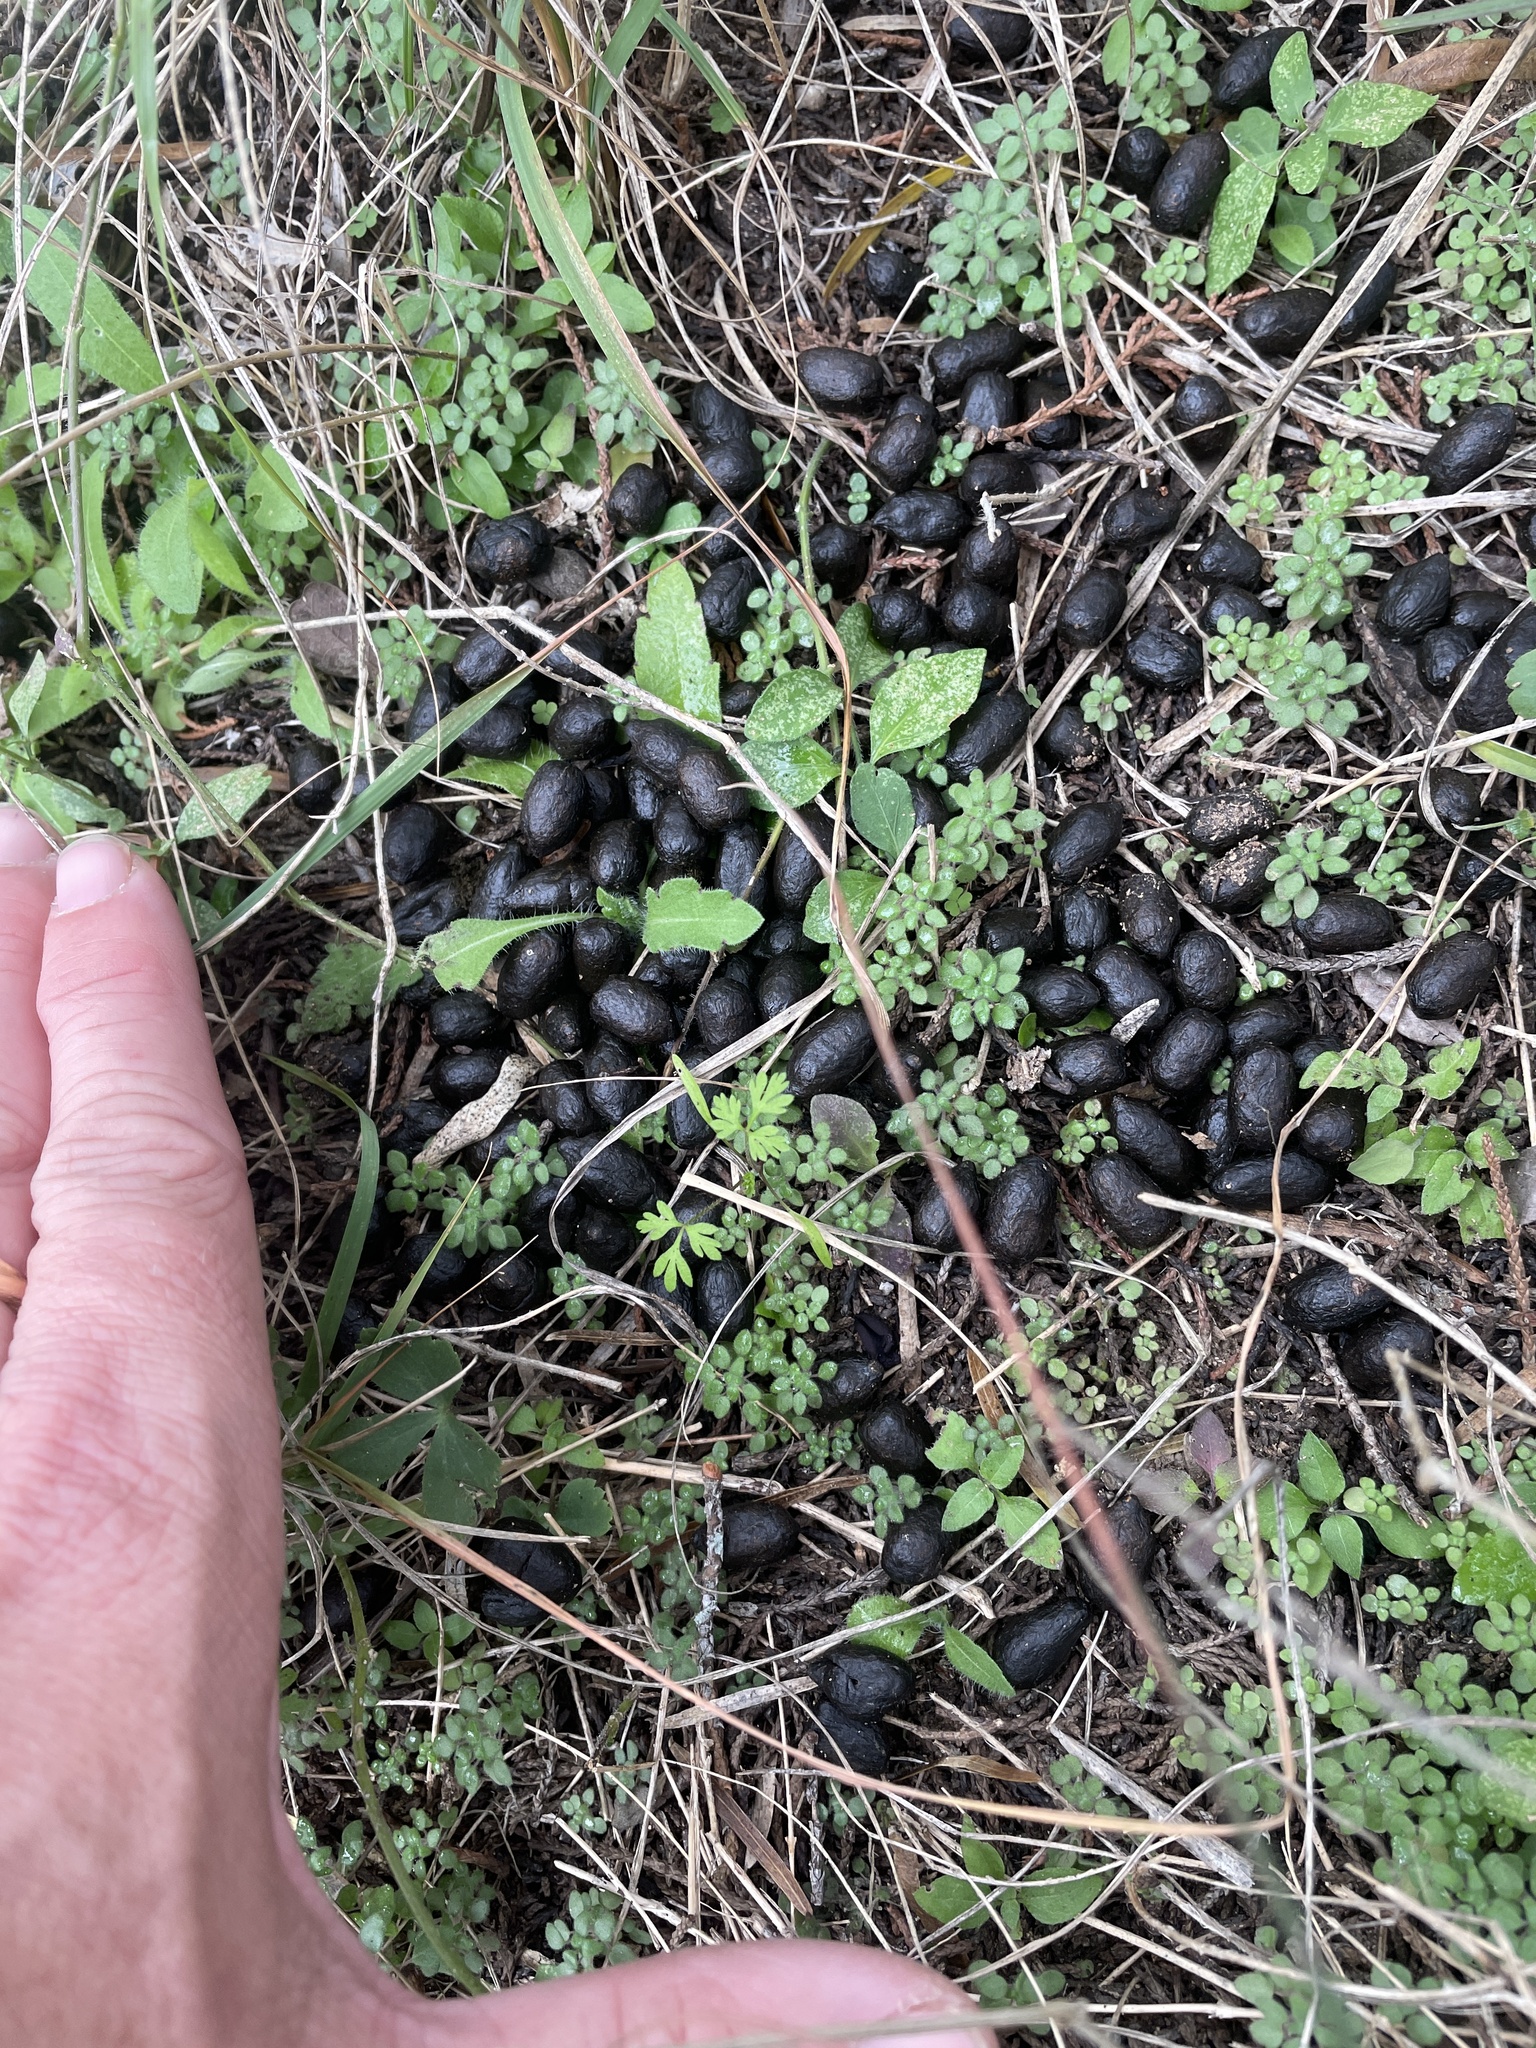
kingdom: Animalia
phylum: Chordata
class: Mammalia
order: Artiodactyla
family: Cervidae
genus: Odocoileus
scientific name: Odocoileus virginianus
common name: White-tailed deer
